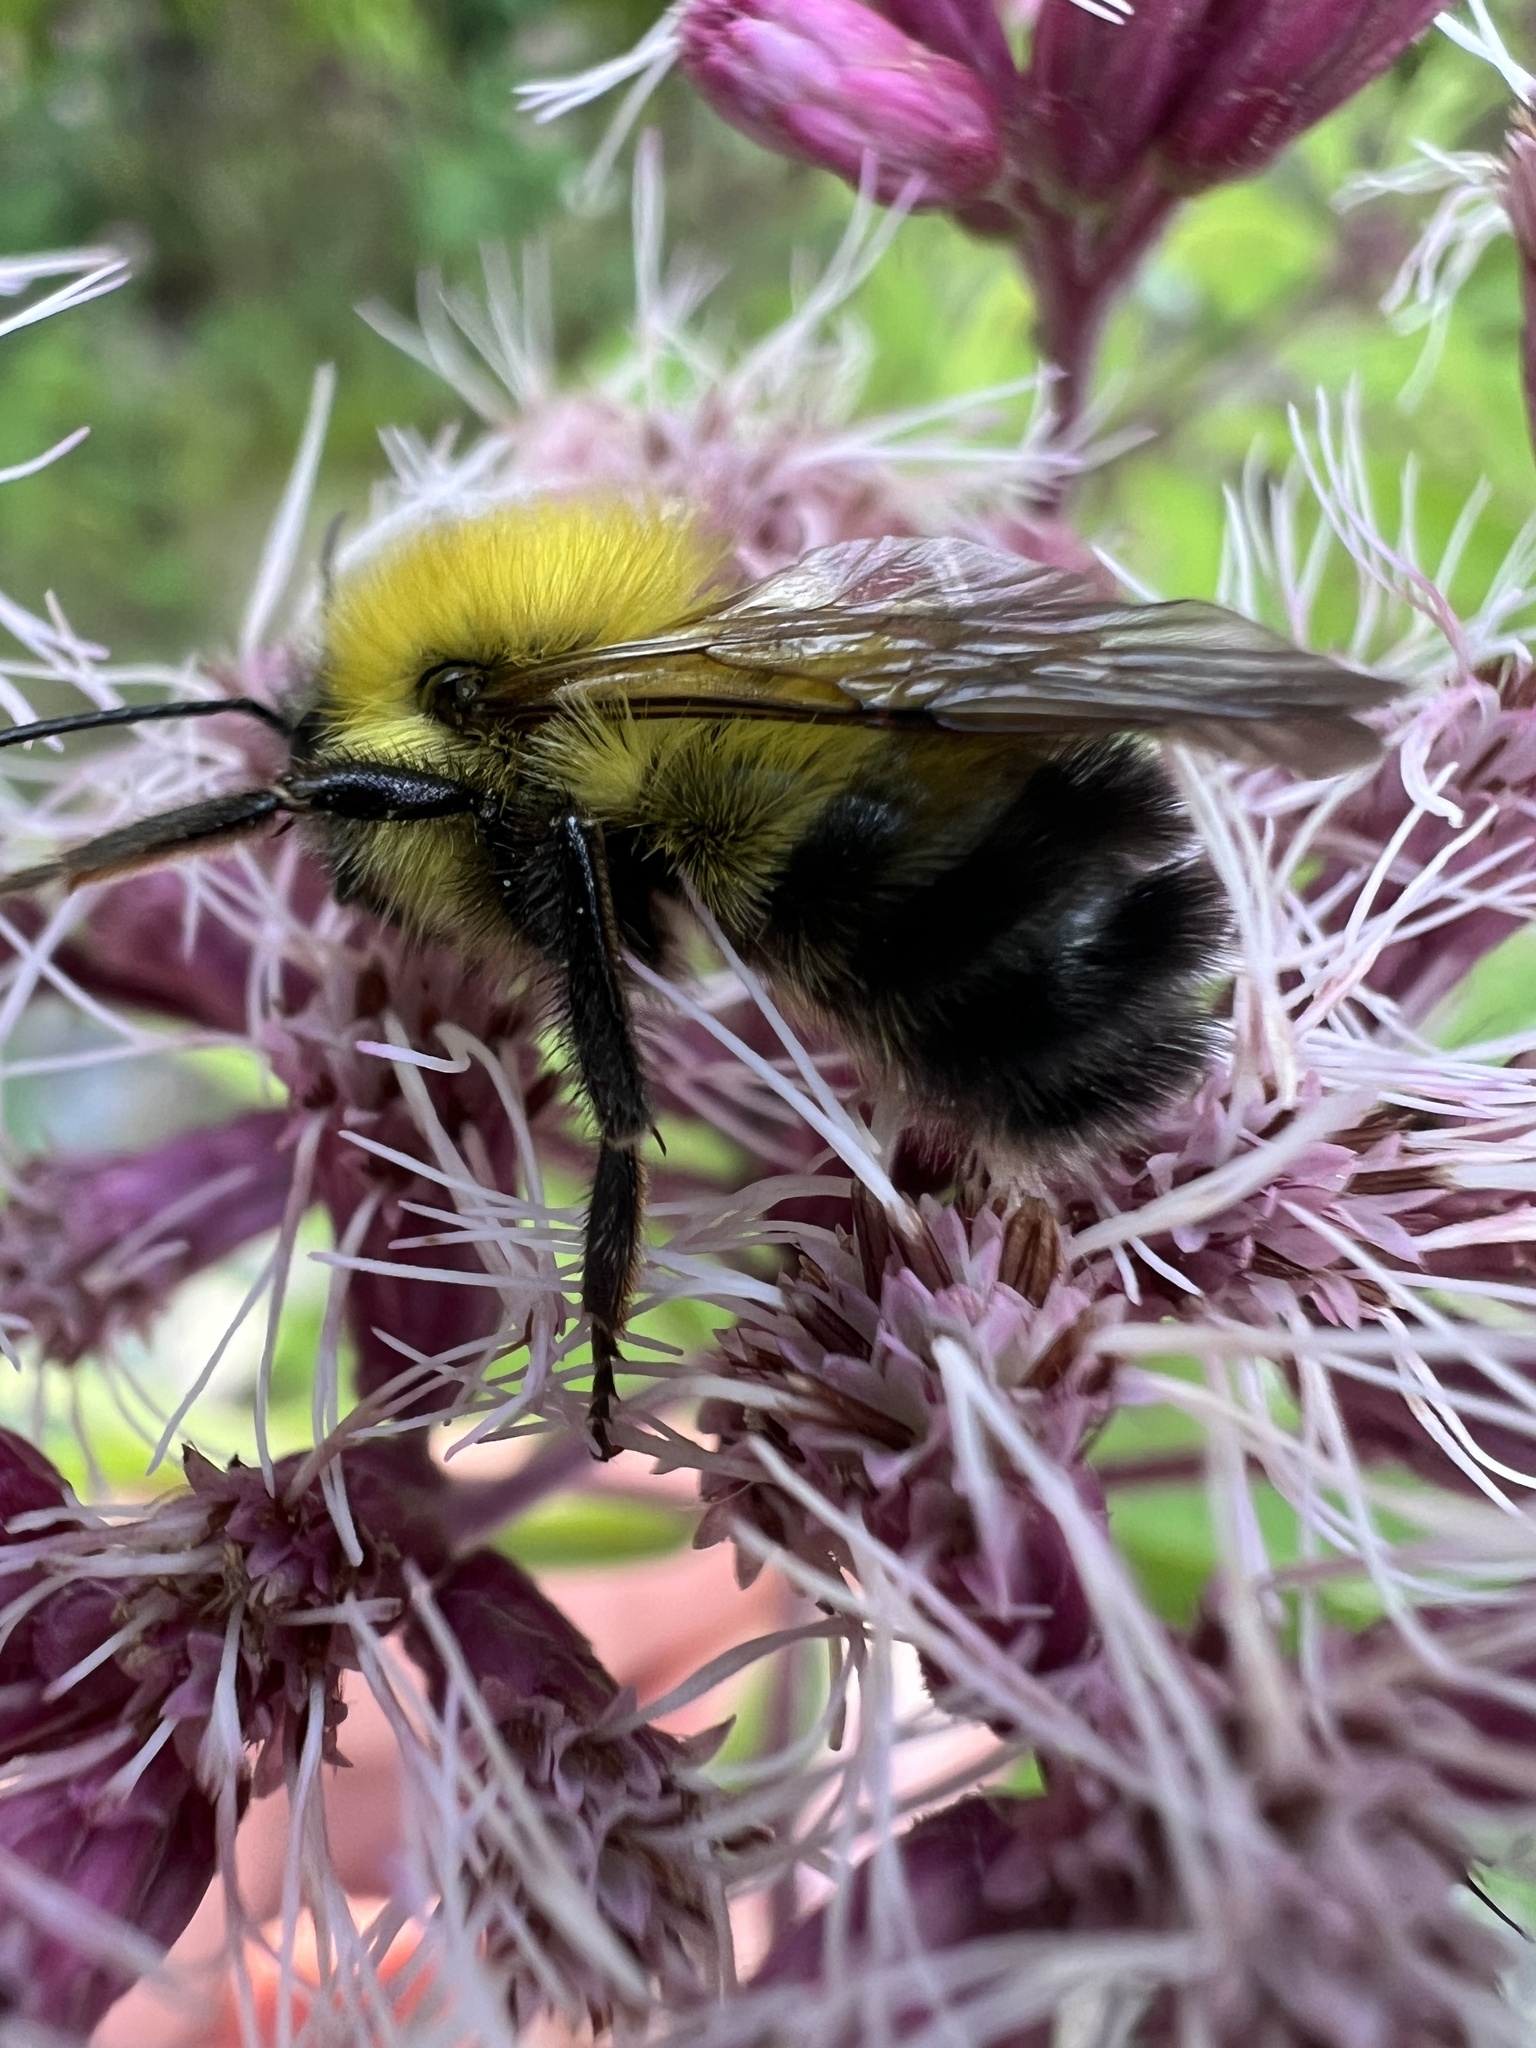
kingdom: Animalia
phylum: Arthropoda
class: Insecta
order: Hymenoptera
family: Apidae
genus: Bombus
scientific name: Bombus perplexus
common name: Confusing bumble bee
